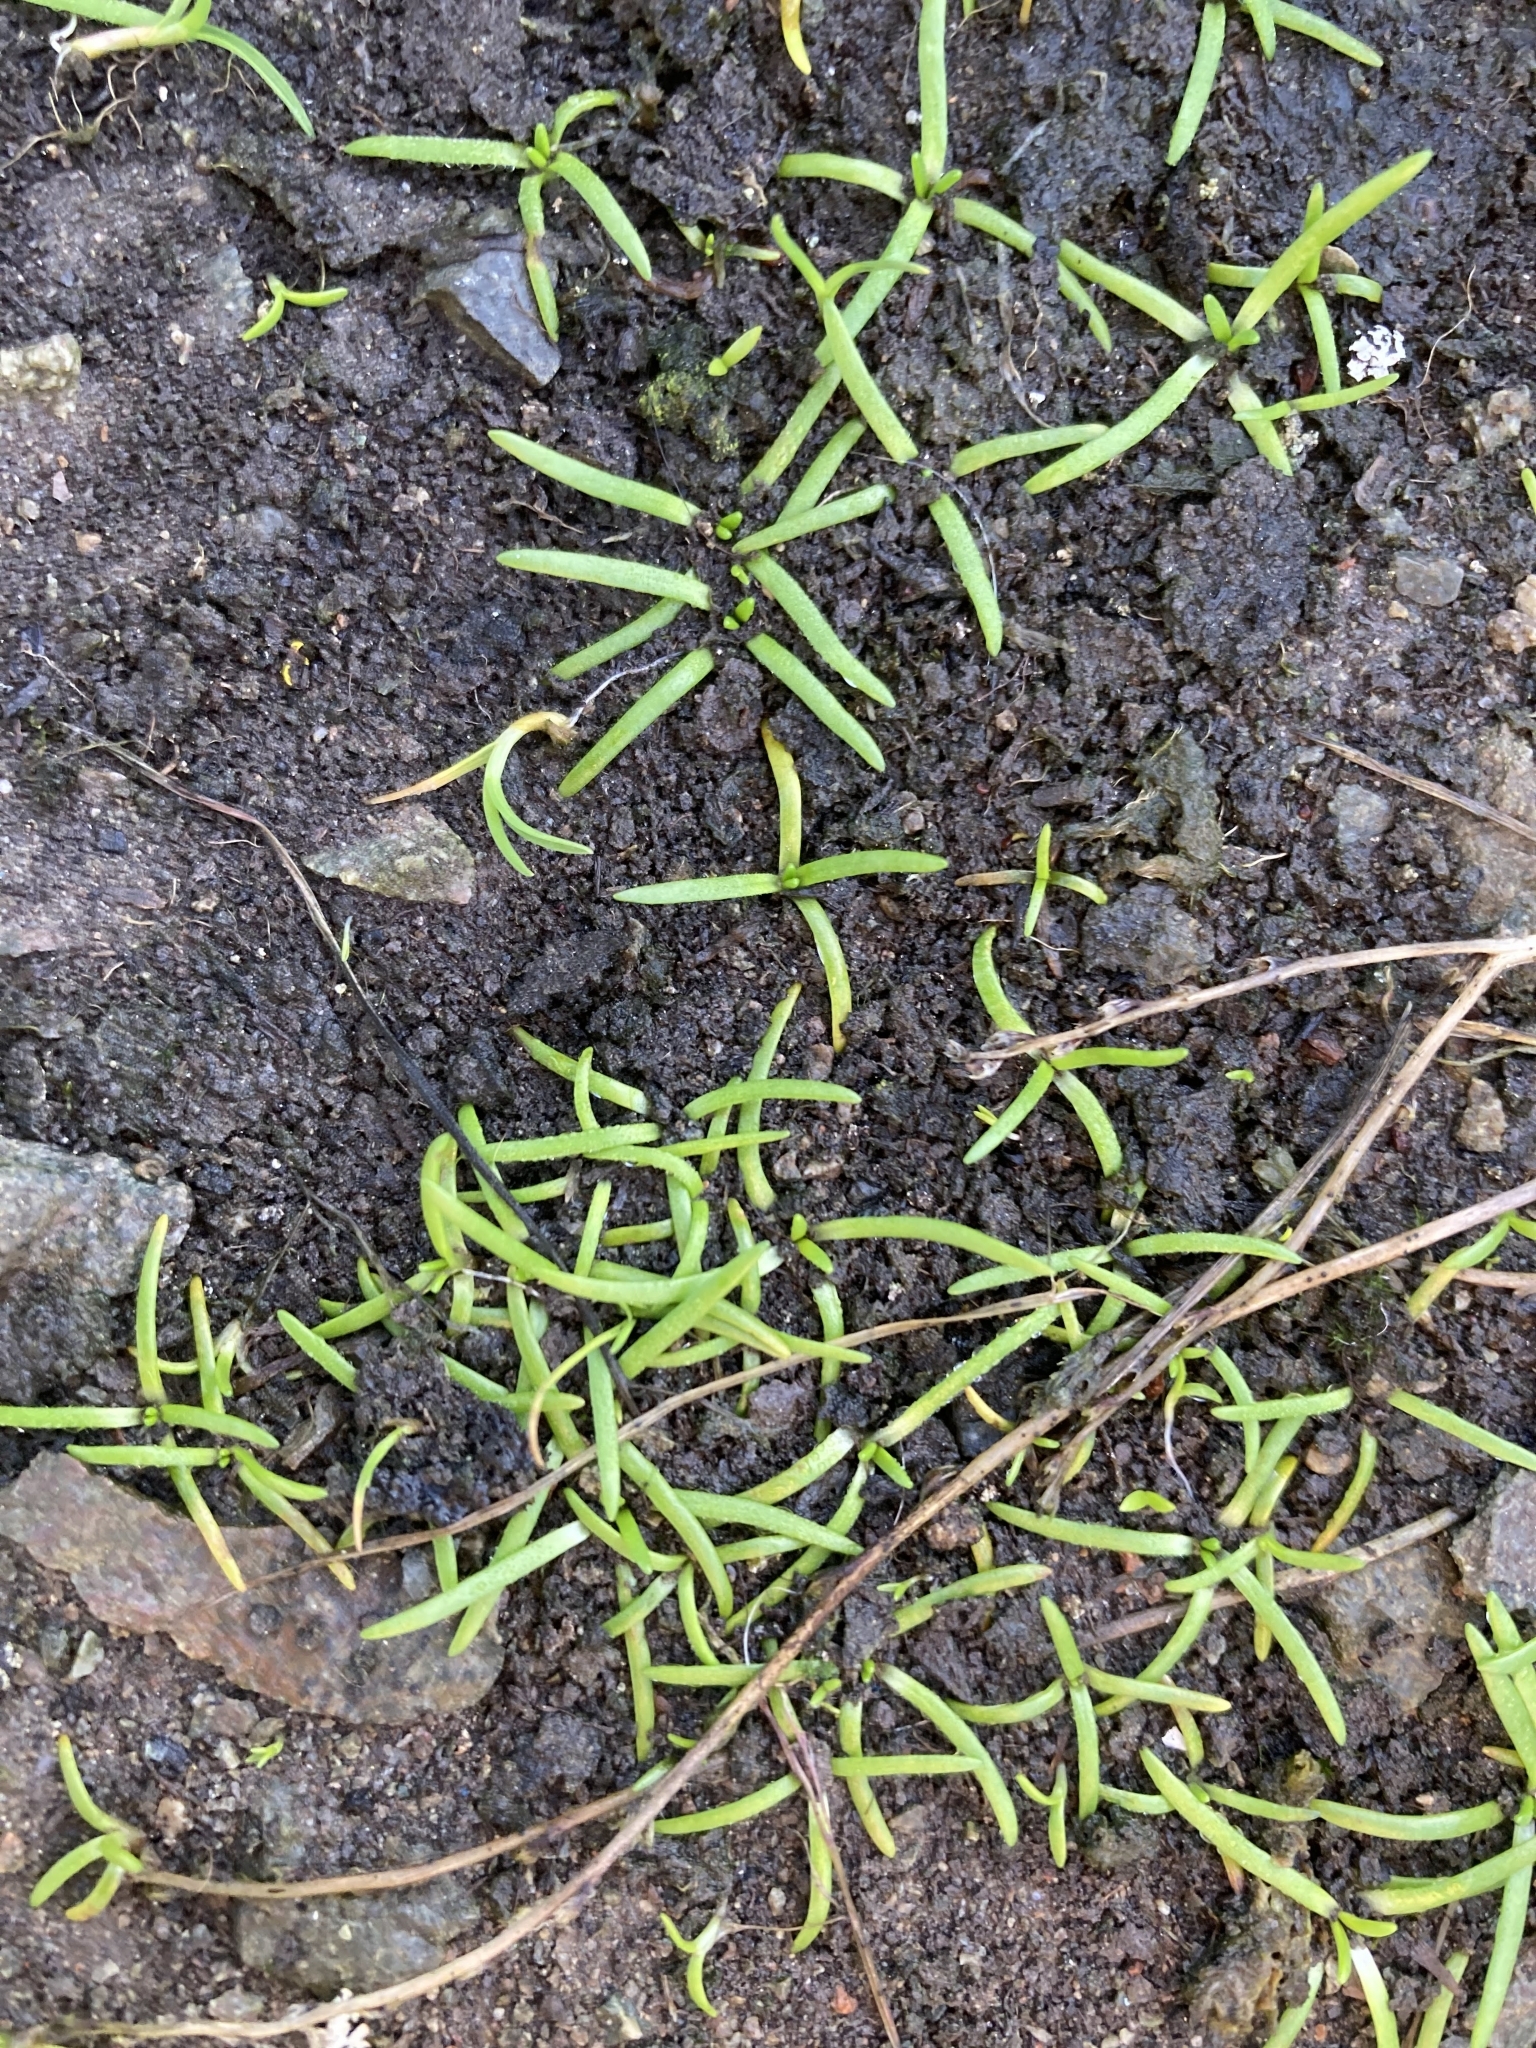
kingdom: Plantae
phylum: Tracheophyta
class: Magnoliopsida
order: Boraginales
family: Boraginaceae
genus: Plagiobothrys
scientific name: Plagiobothrys scouleri
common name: White forget-me-not
